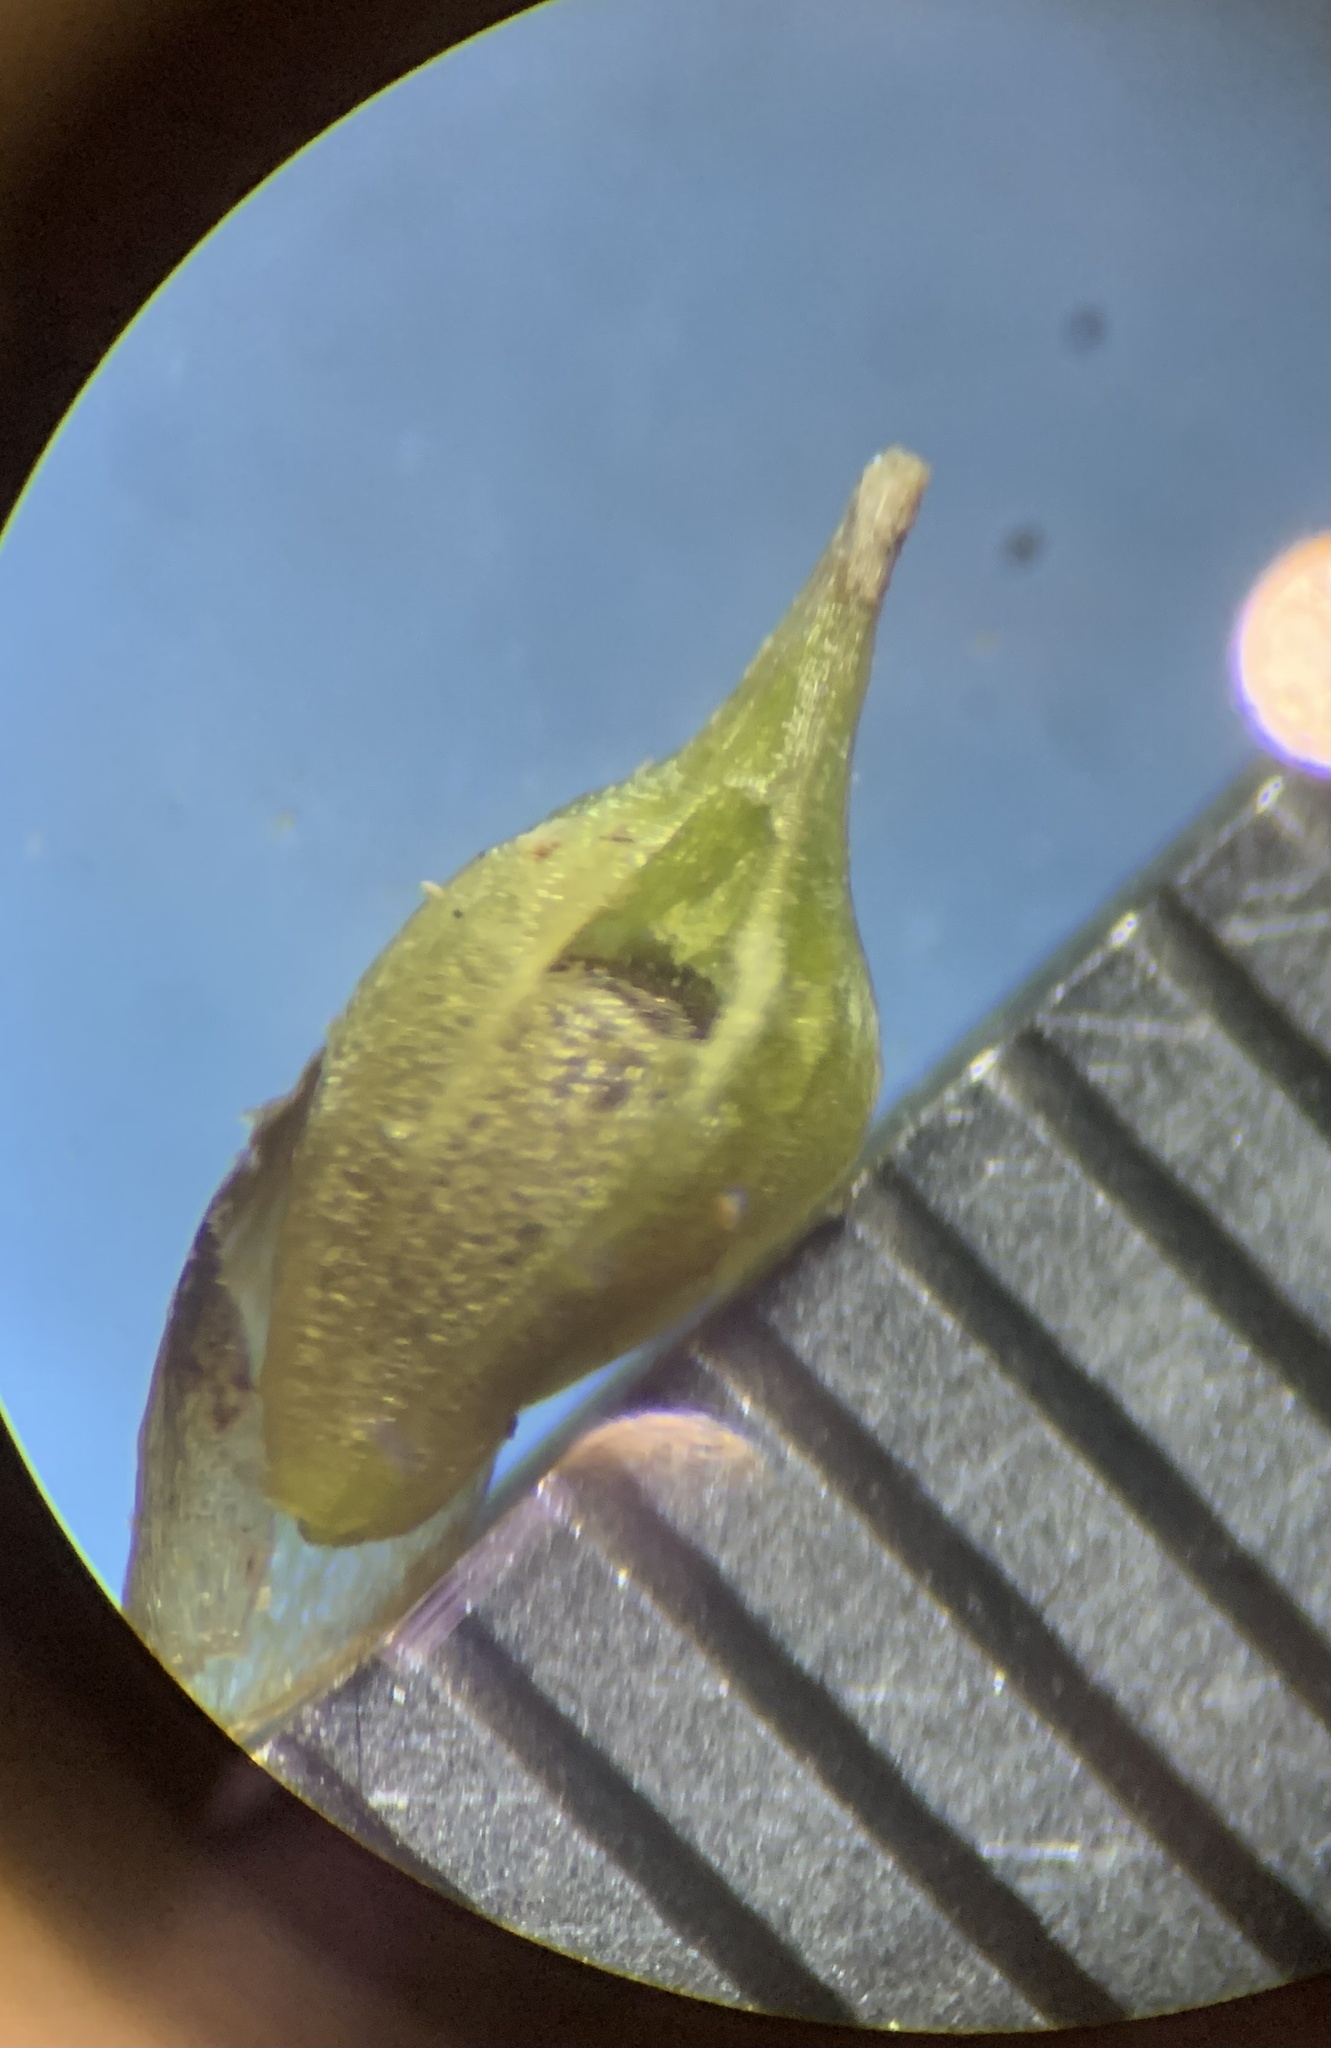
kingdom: Plantae
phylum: Tracheophyta
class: Liliopsida
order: Poales
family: Cyperaceae
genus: Carex
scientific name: Carex
